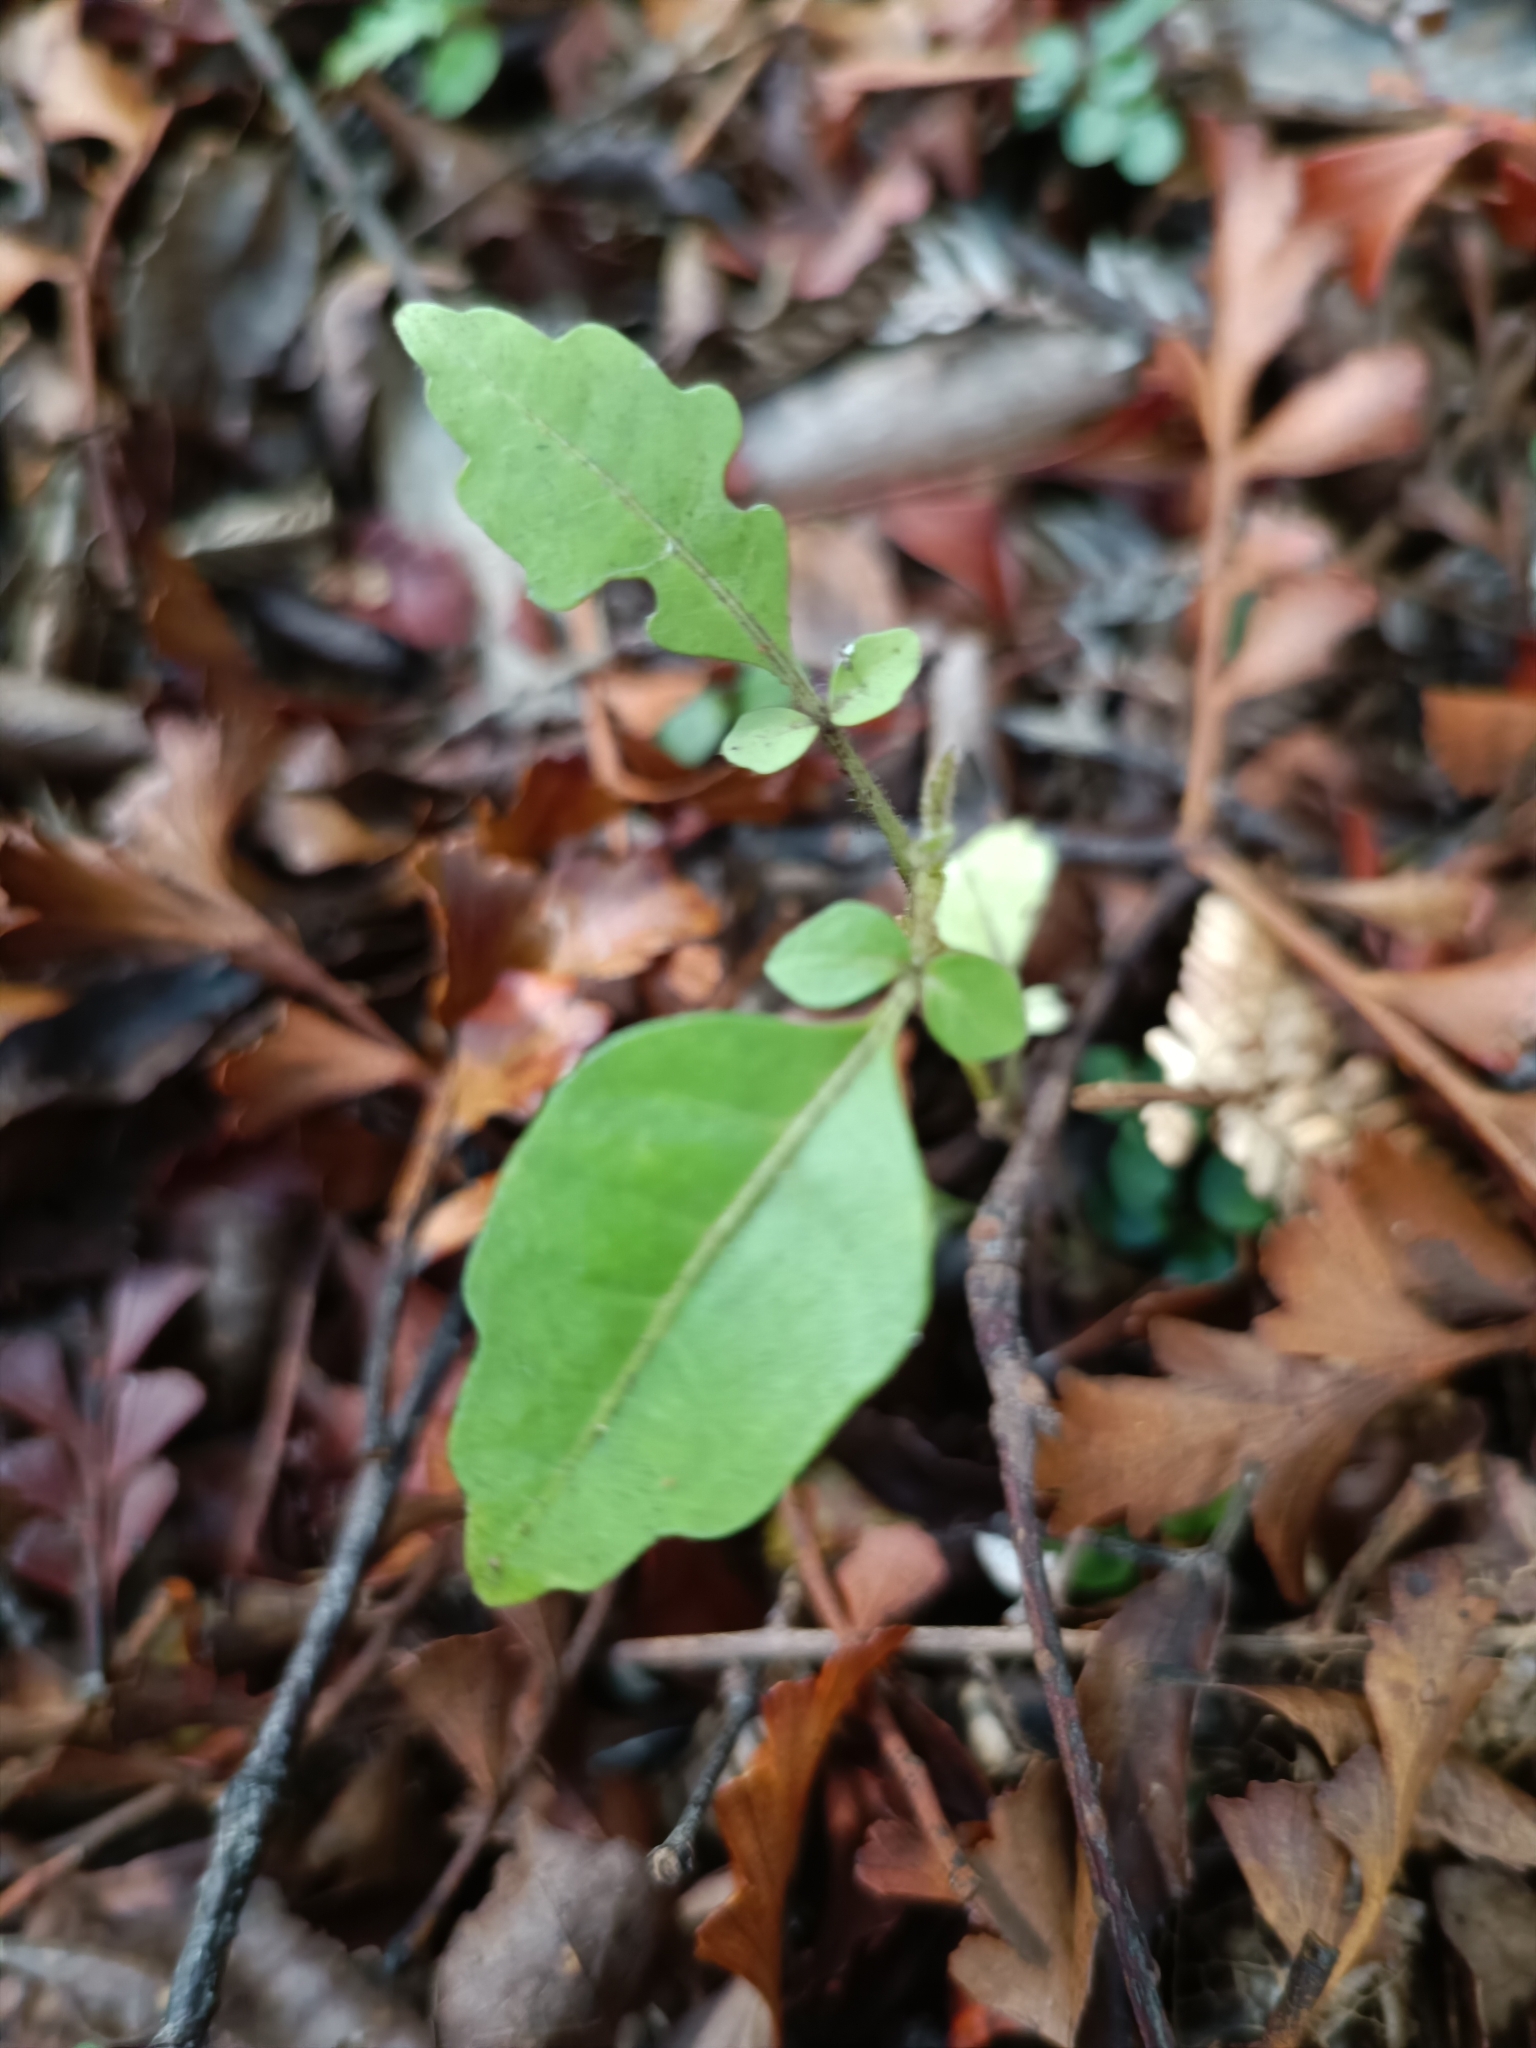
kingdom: Plantae
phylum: Tracheophyta
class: Magnoliopsida
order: Sapindales
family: Meliaceae
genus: Didymocheton
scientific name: Didymocheton spectabilis
